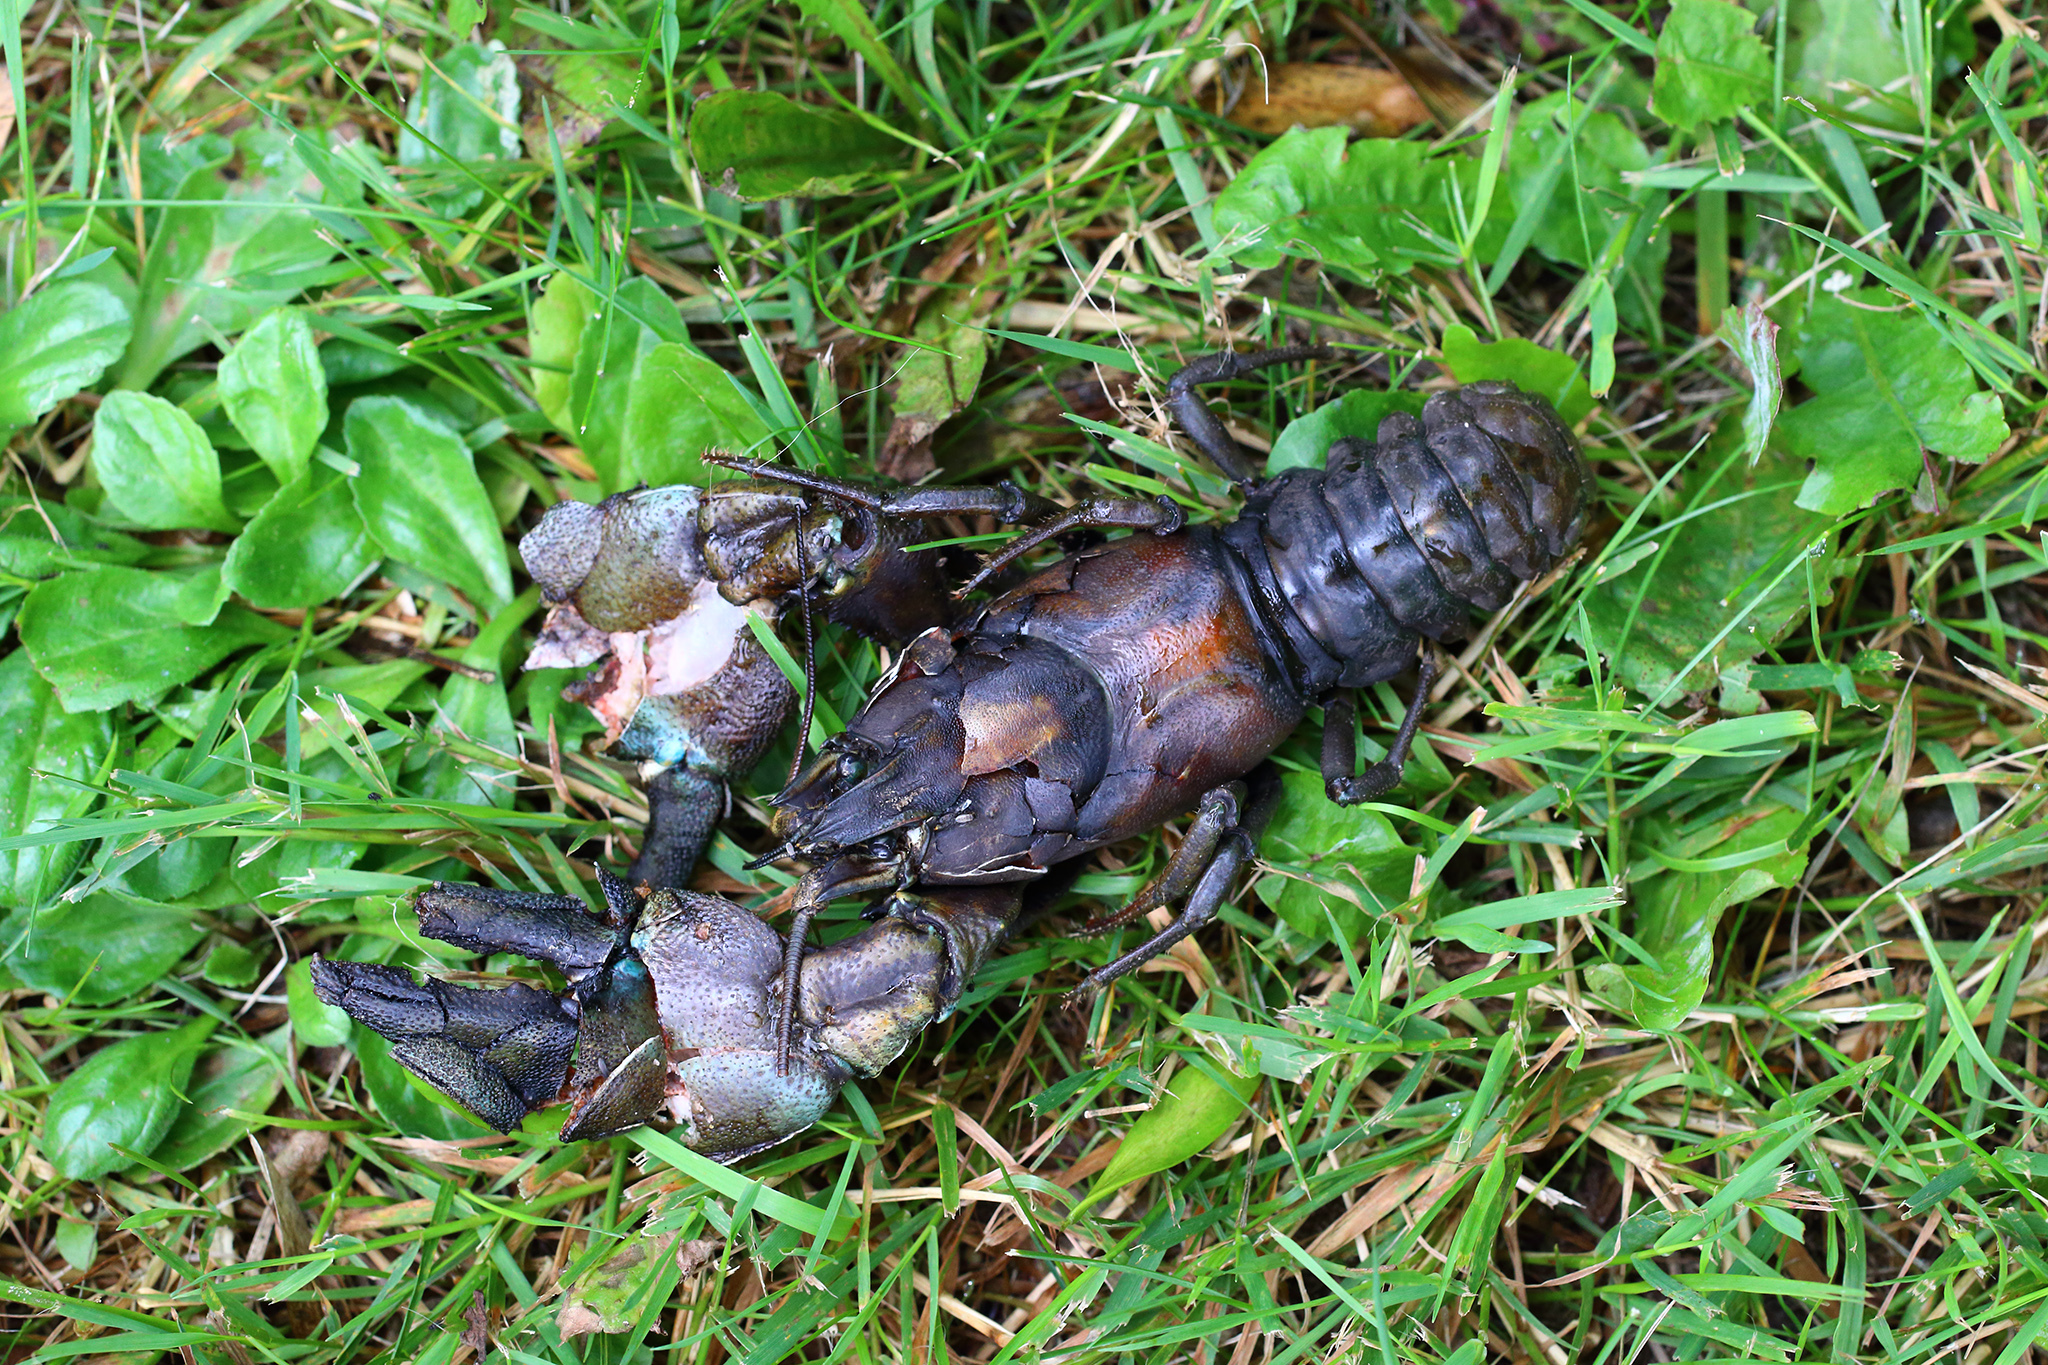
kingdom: Animalia
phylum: Arthropoda
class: Malacostraca
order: Decapoda
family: Astacidae
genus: Pacifastacus
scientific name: Pacifastacus leniusculus
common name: Signal crayfish
